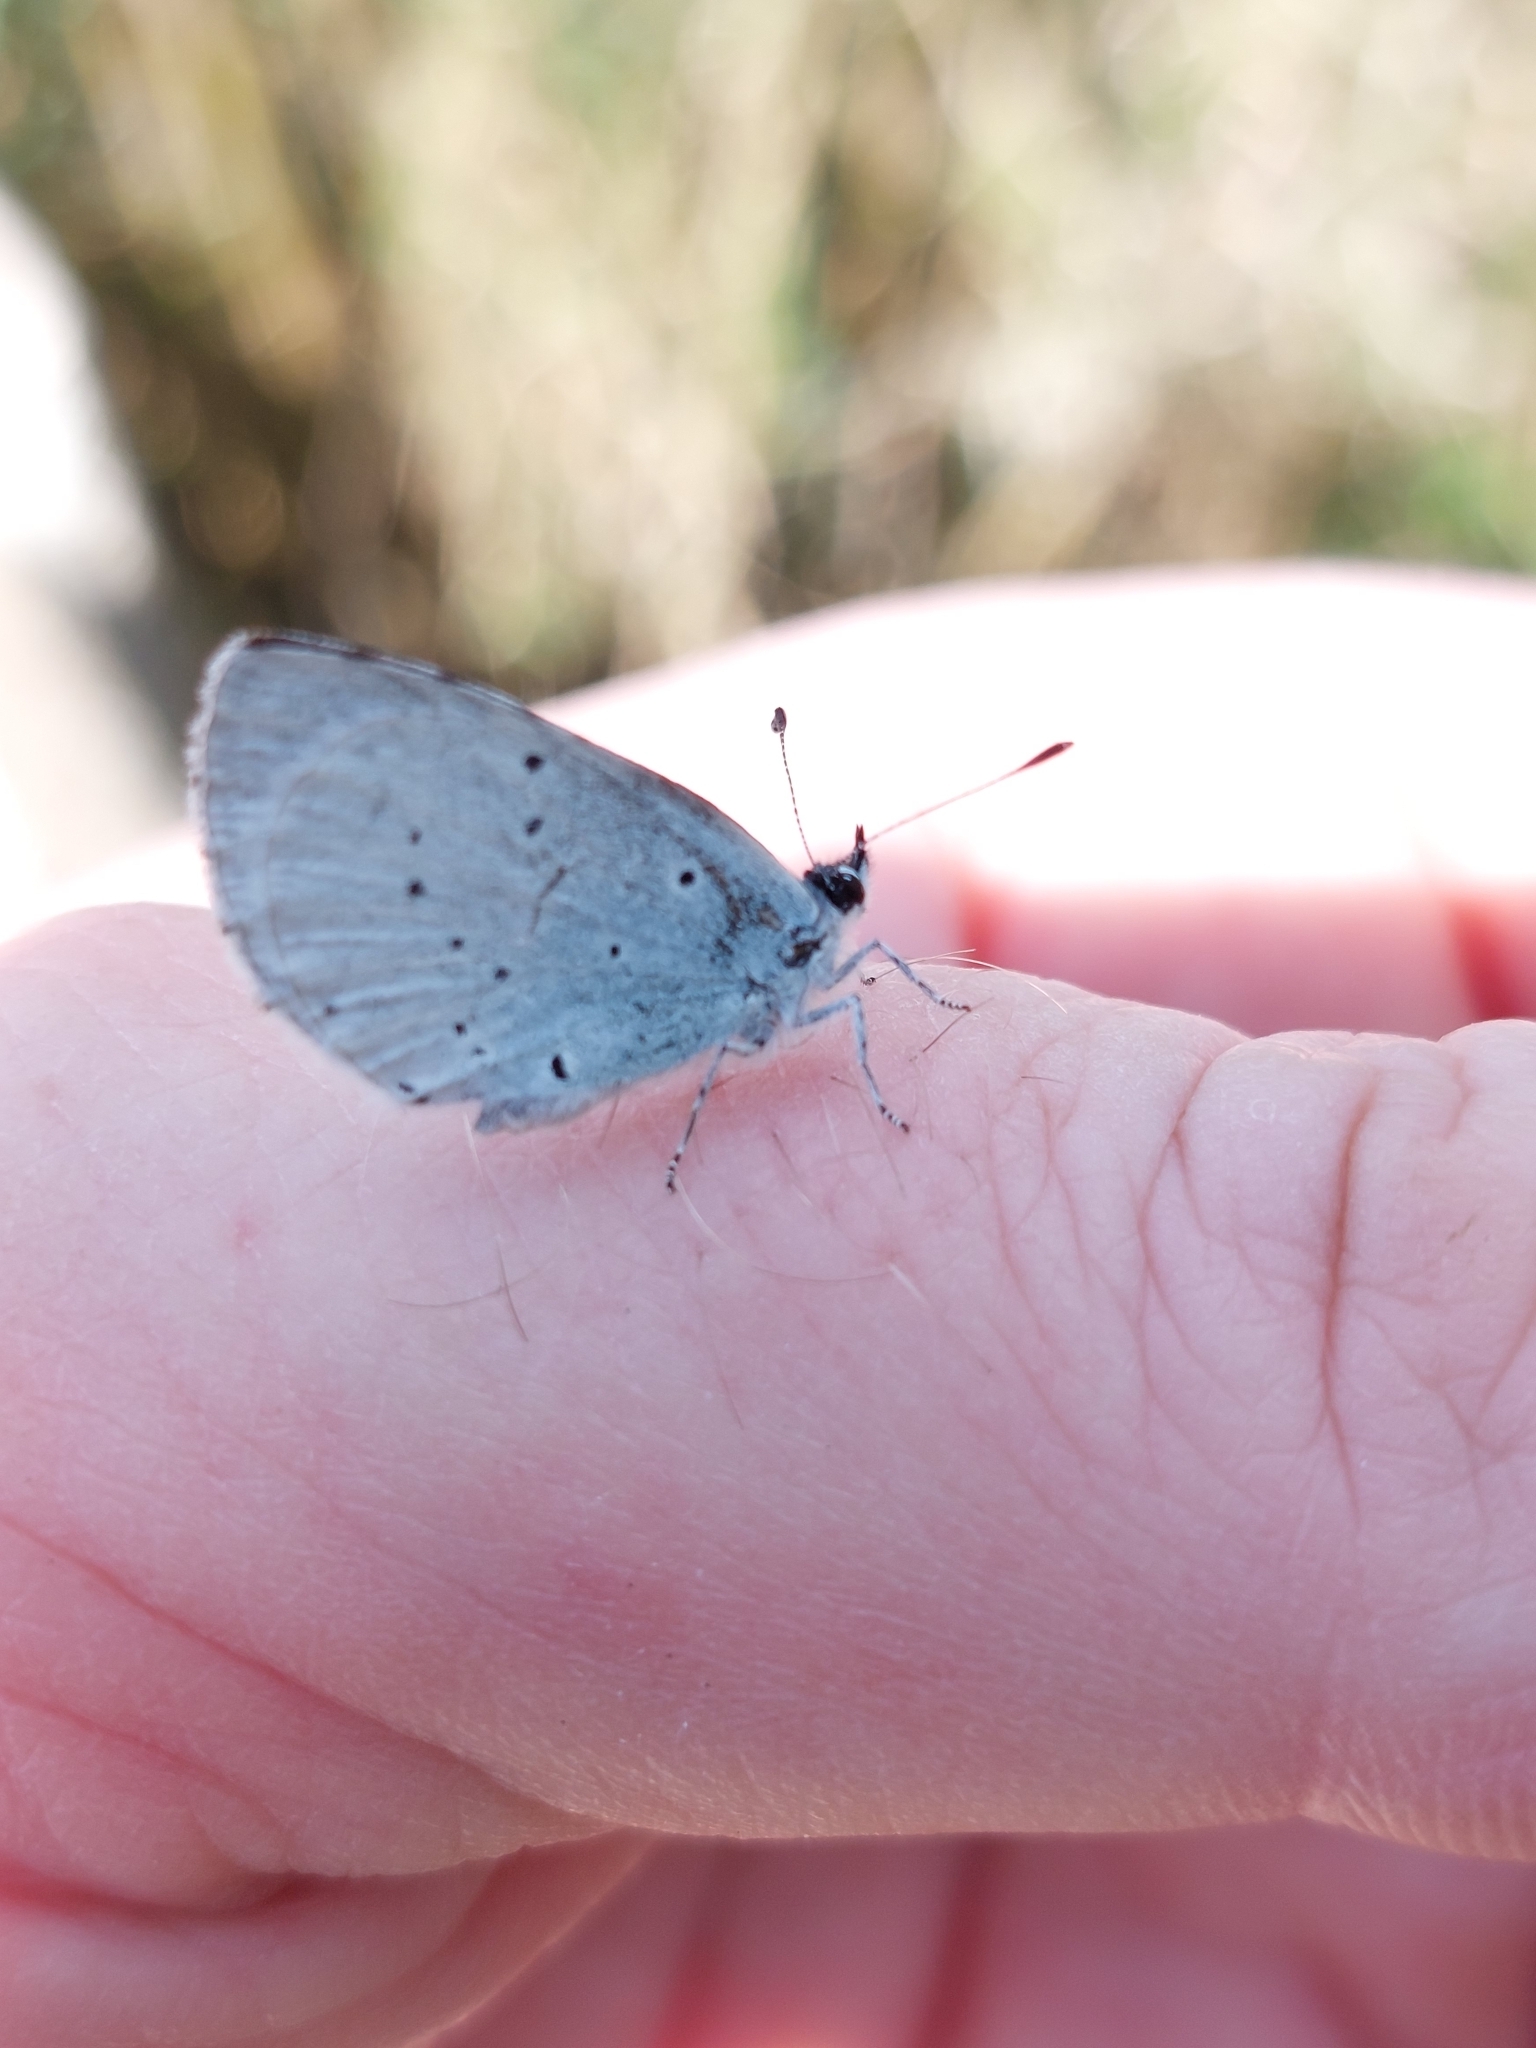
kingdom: Animalia
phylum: Arthropoda
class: Insecta
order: Lepidoptera
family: Lycaenidae
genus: Celastrina
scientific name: Celastrina argiolus
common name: Holly blue
